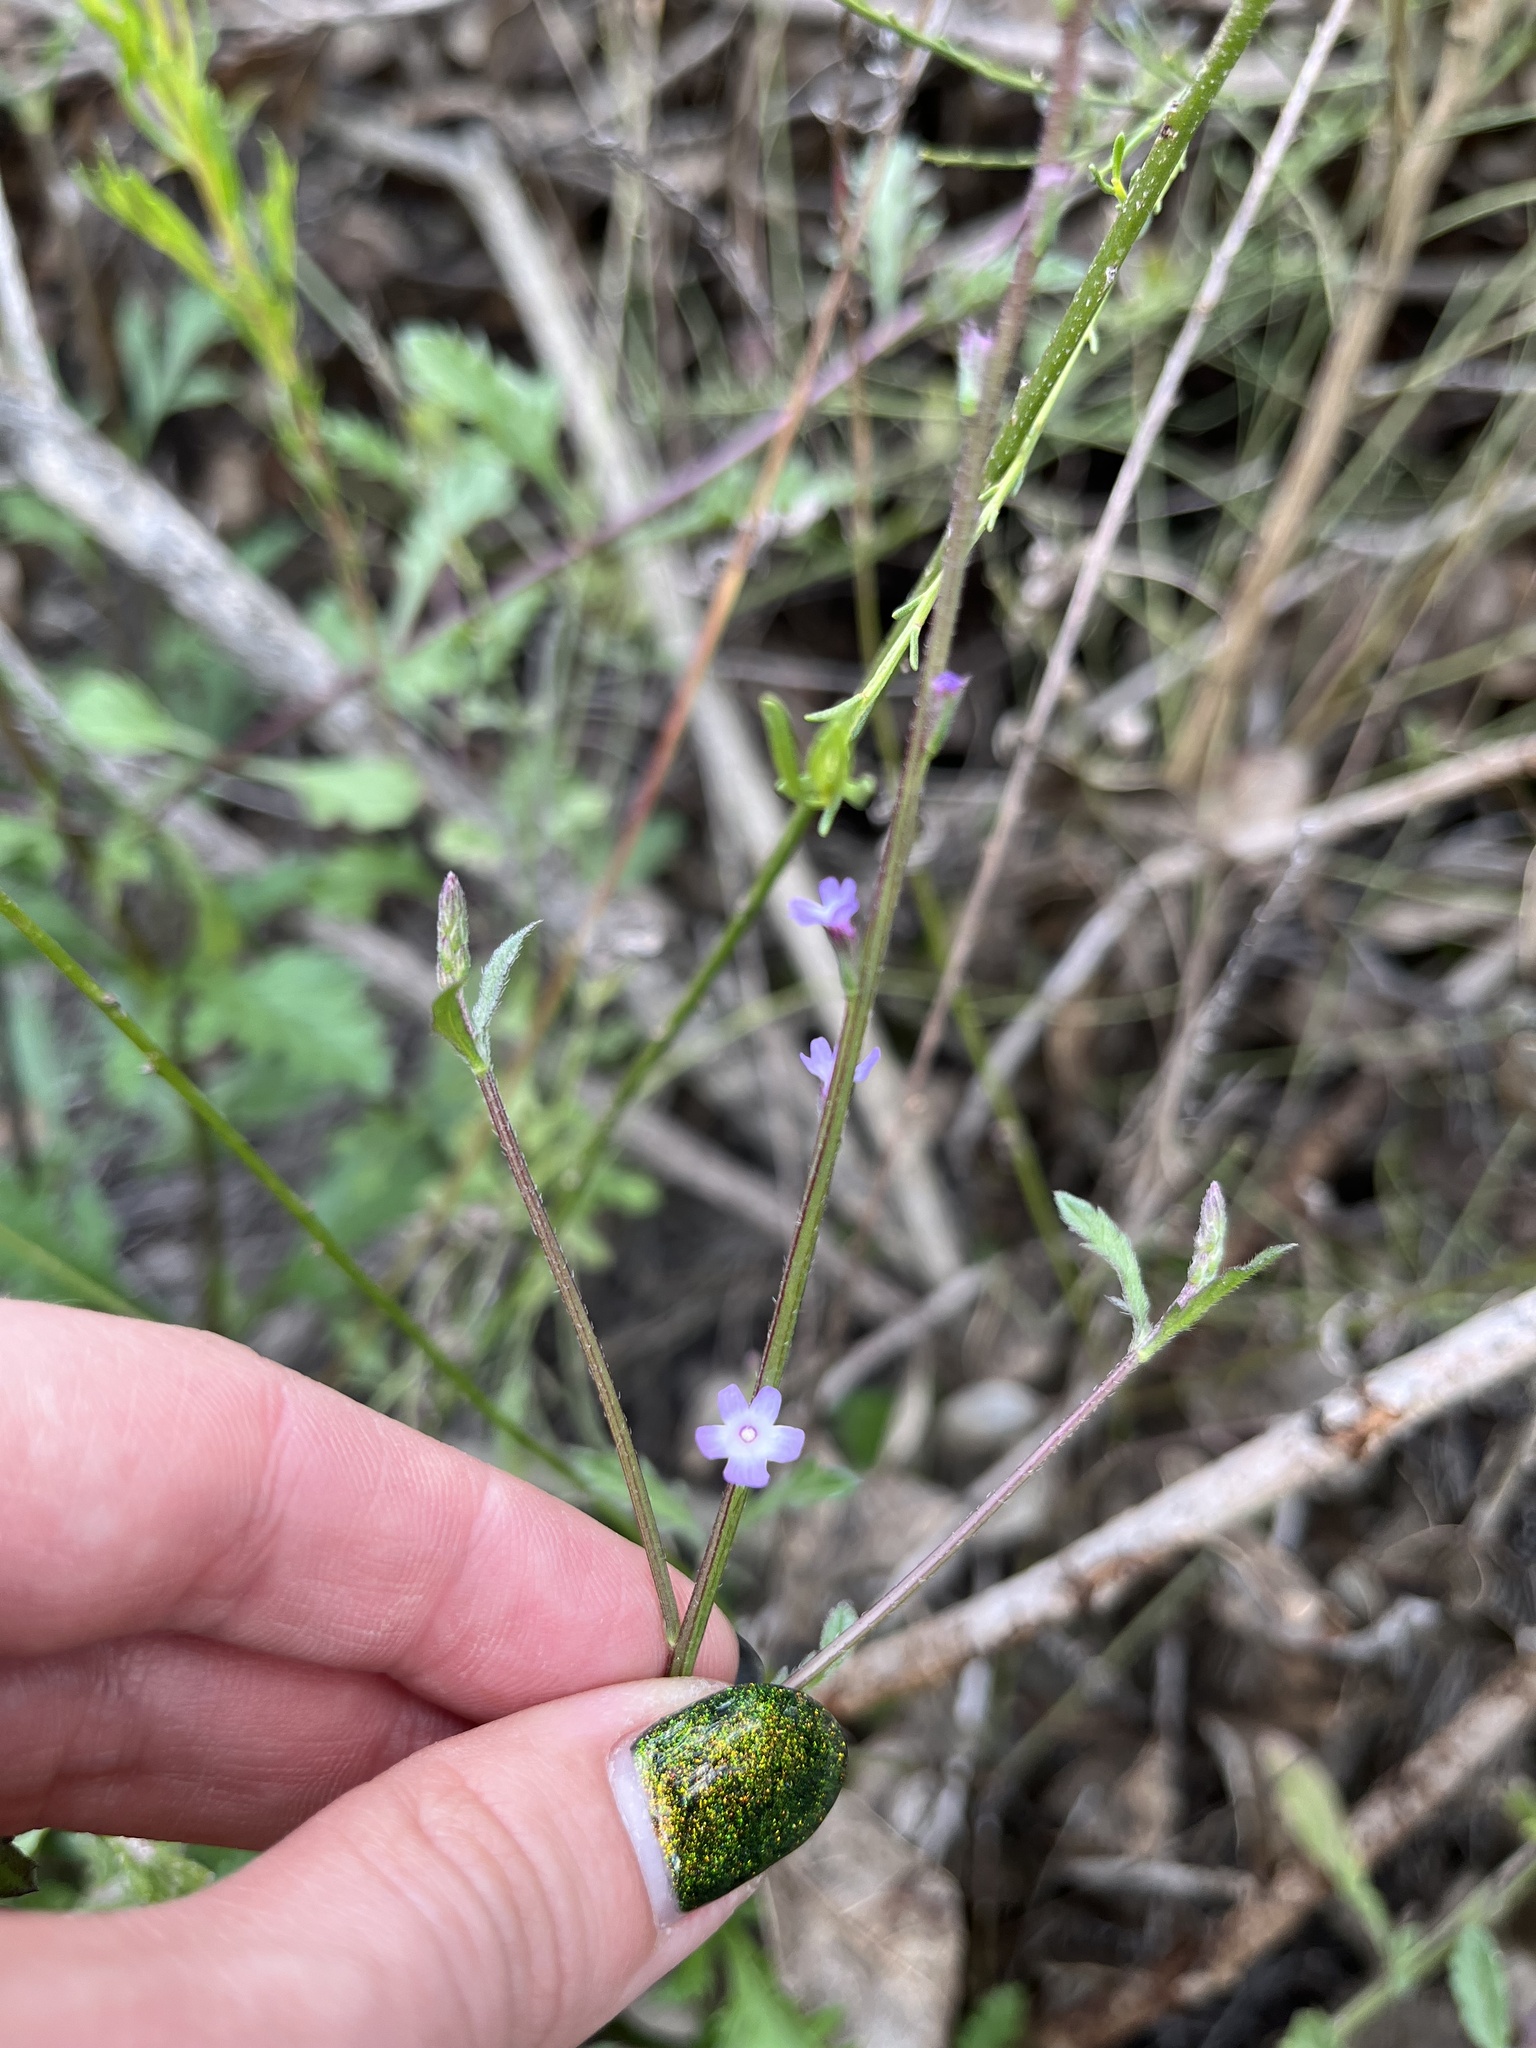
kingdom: Plantae
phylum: Tracheophyta
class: Magnoliopsida
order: Lamiales
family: Verbenaceae
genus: Verbena
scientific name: Verbena menthifolia
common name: Mint-leaf vervain
